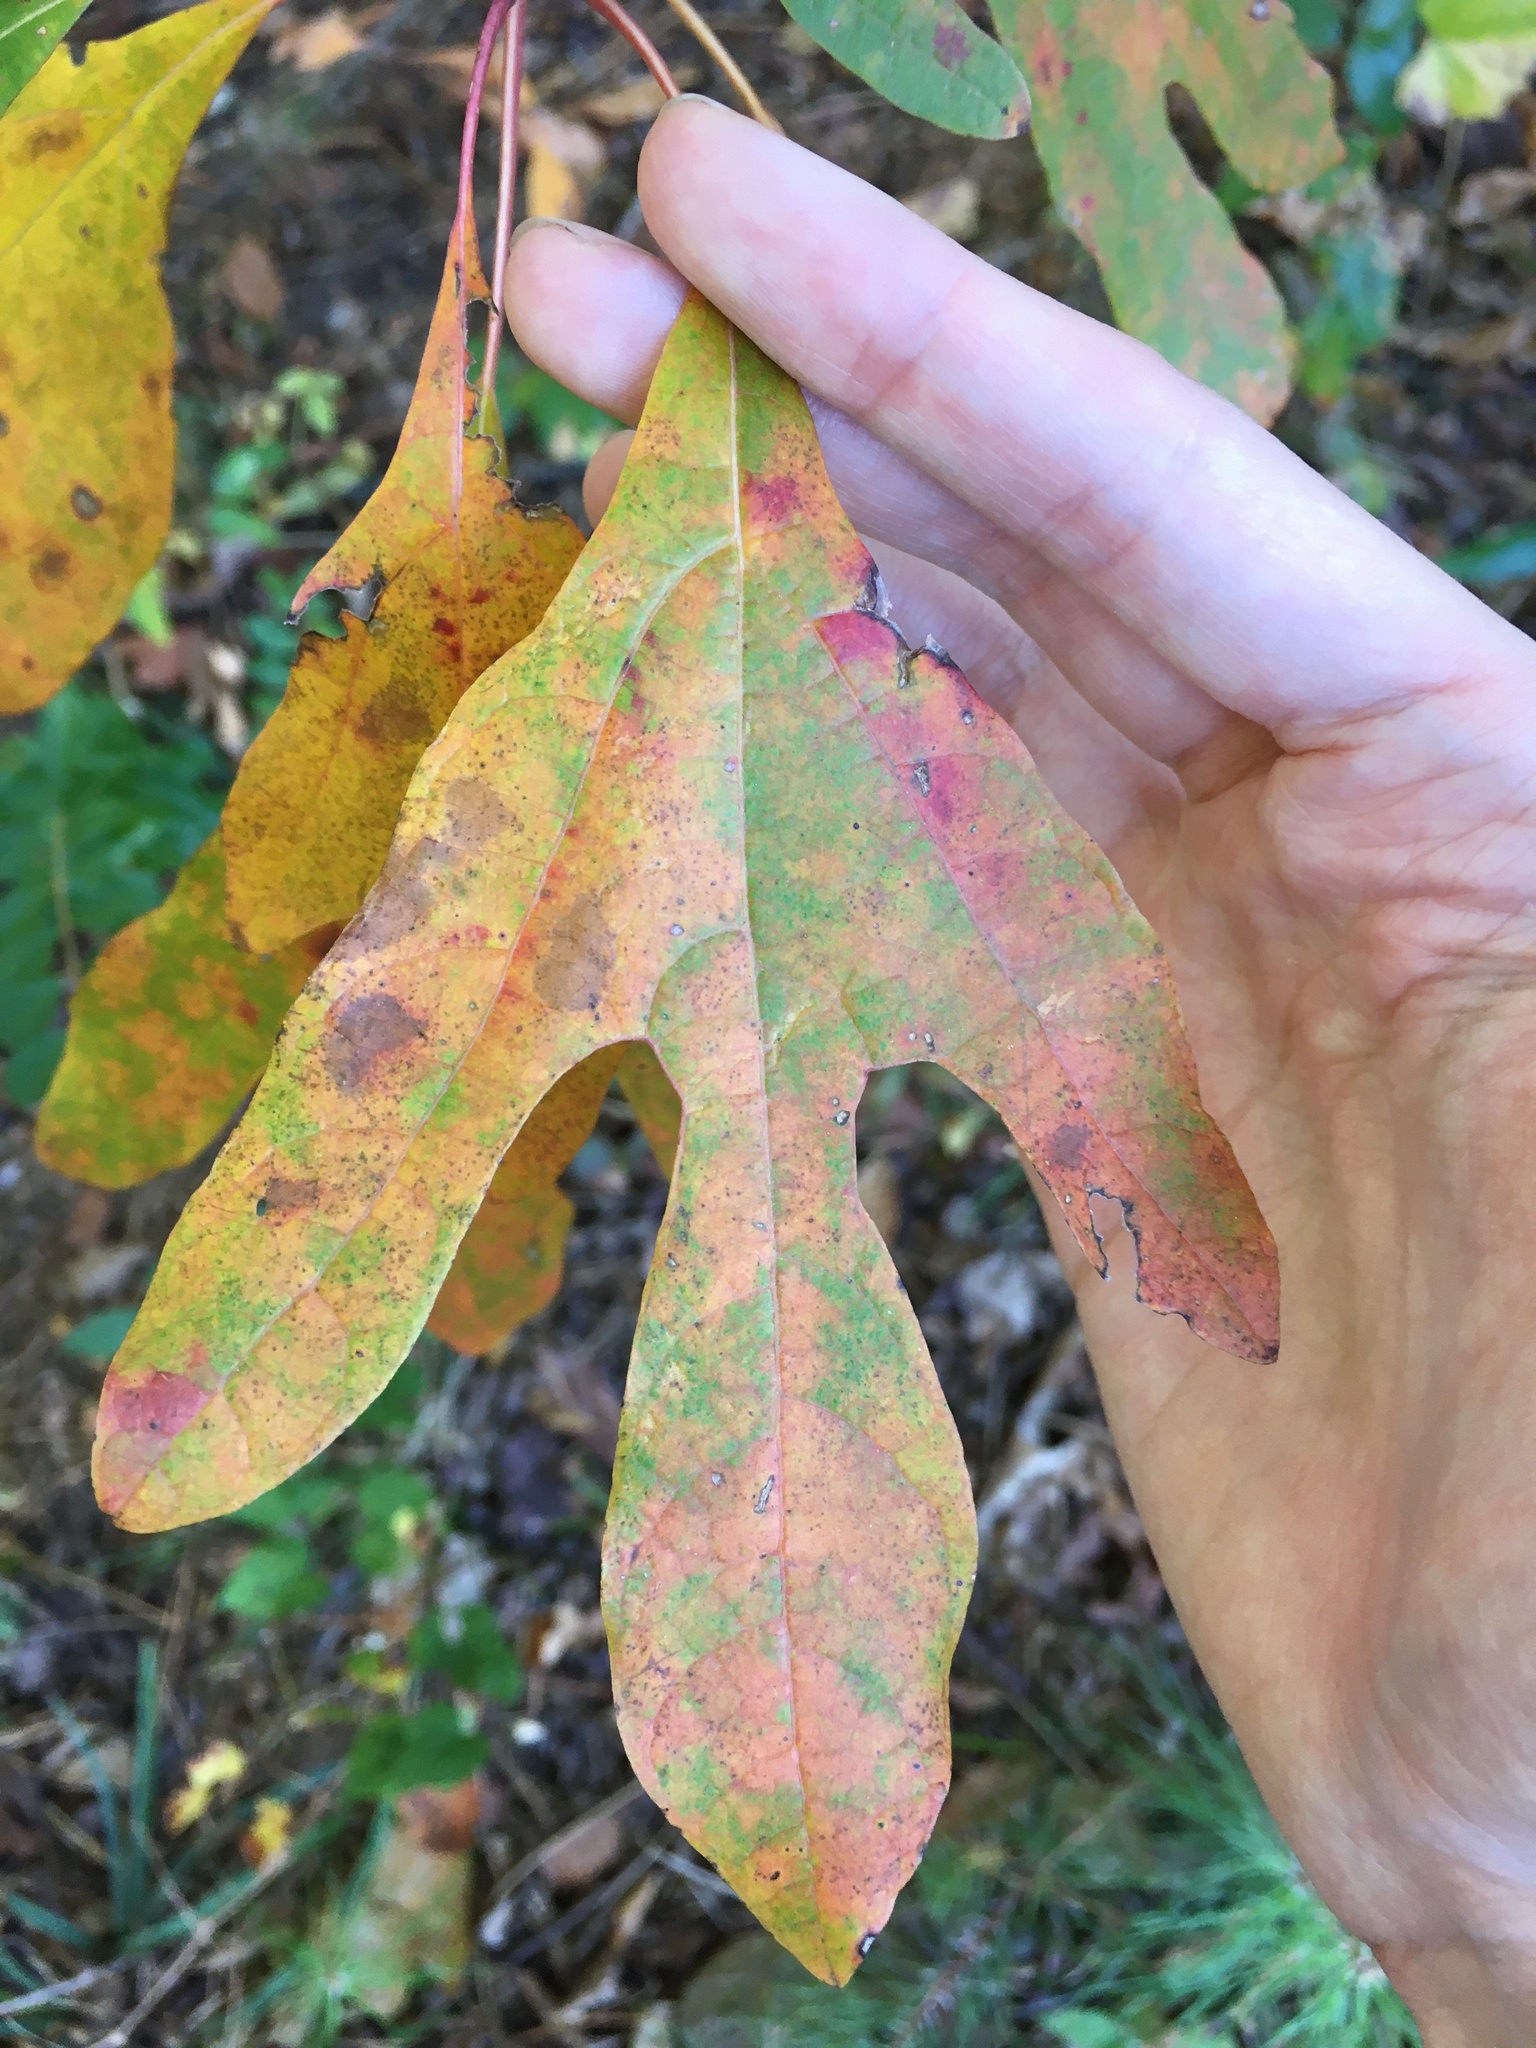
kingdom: Plantae
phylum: Tracheophyta
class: Magnoliopsida
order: Laurales
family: Lauraceae
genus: Sassafras
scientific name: Sassafras albidum
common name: Sassafras
